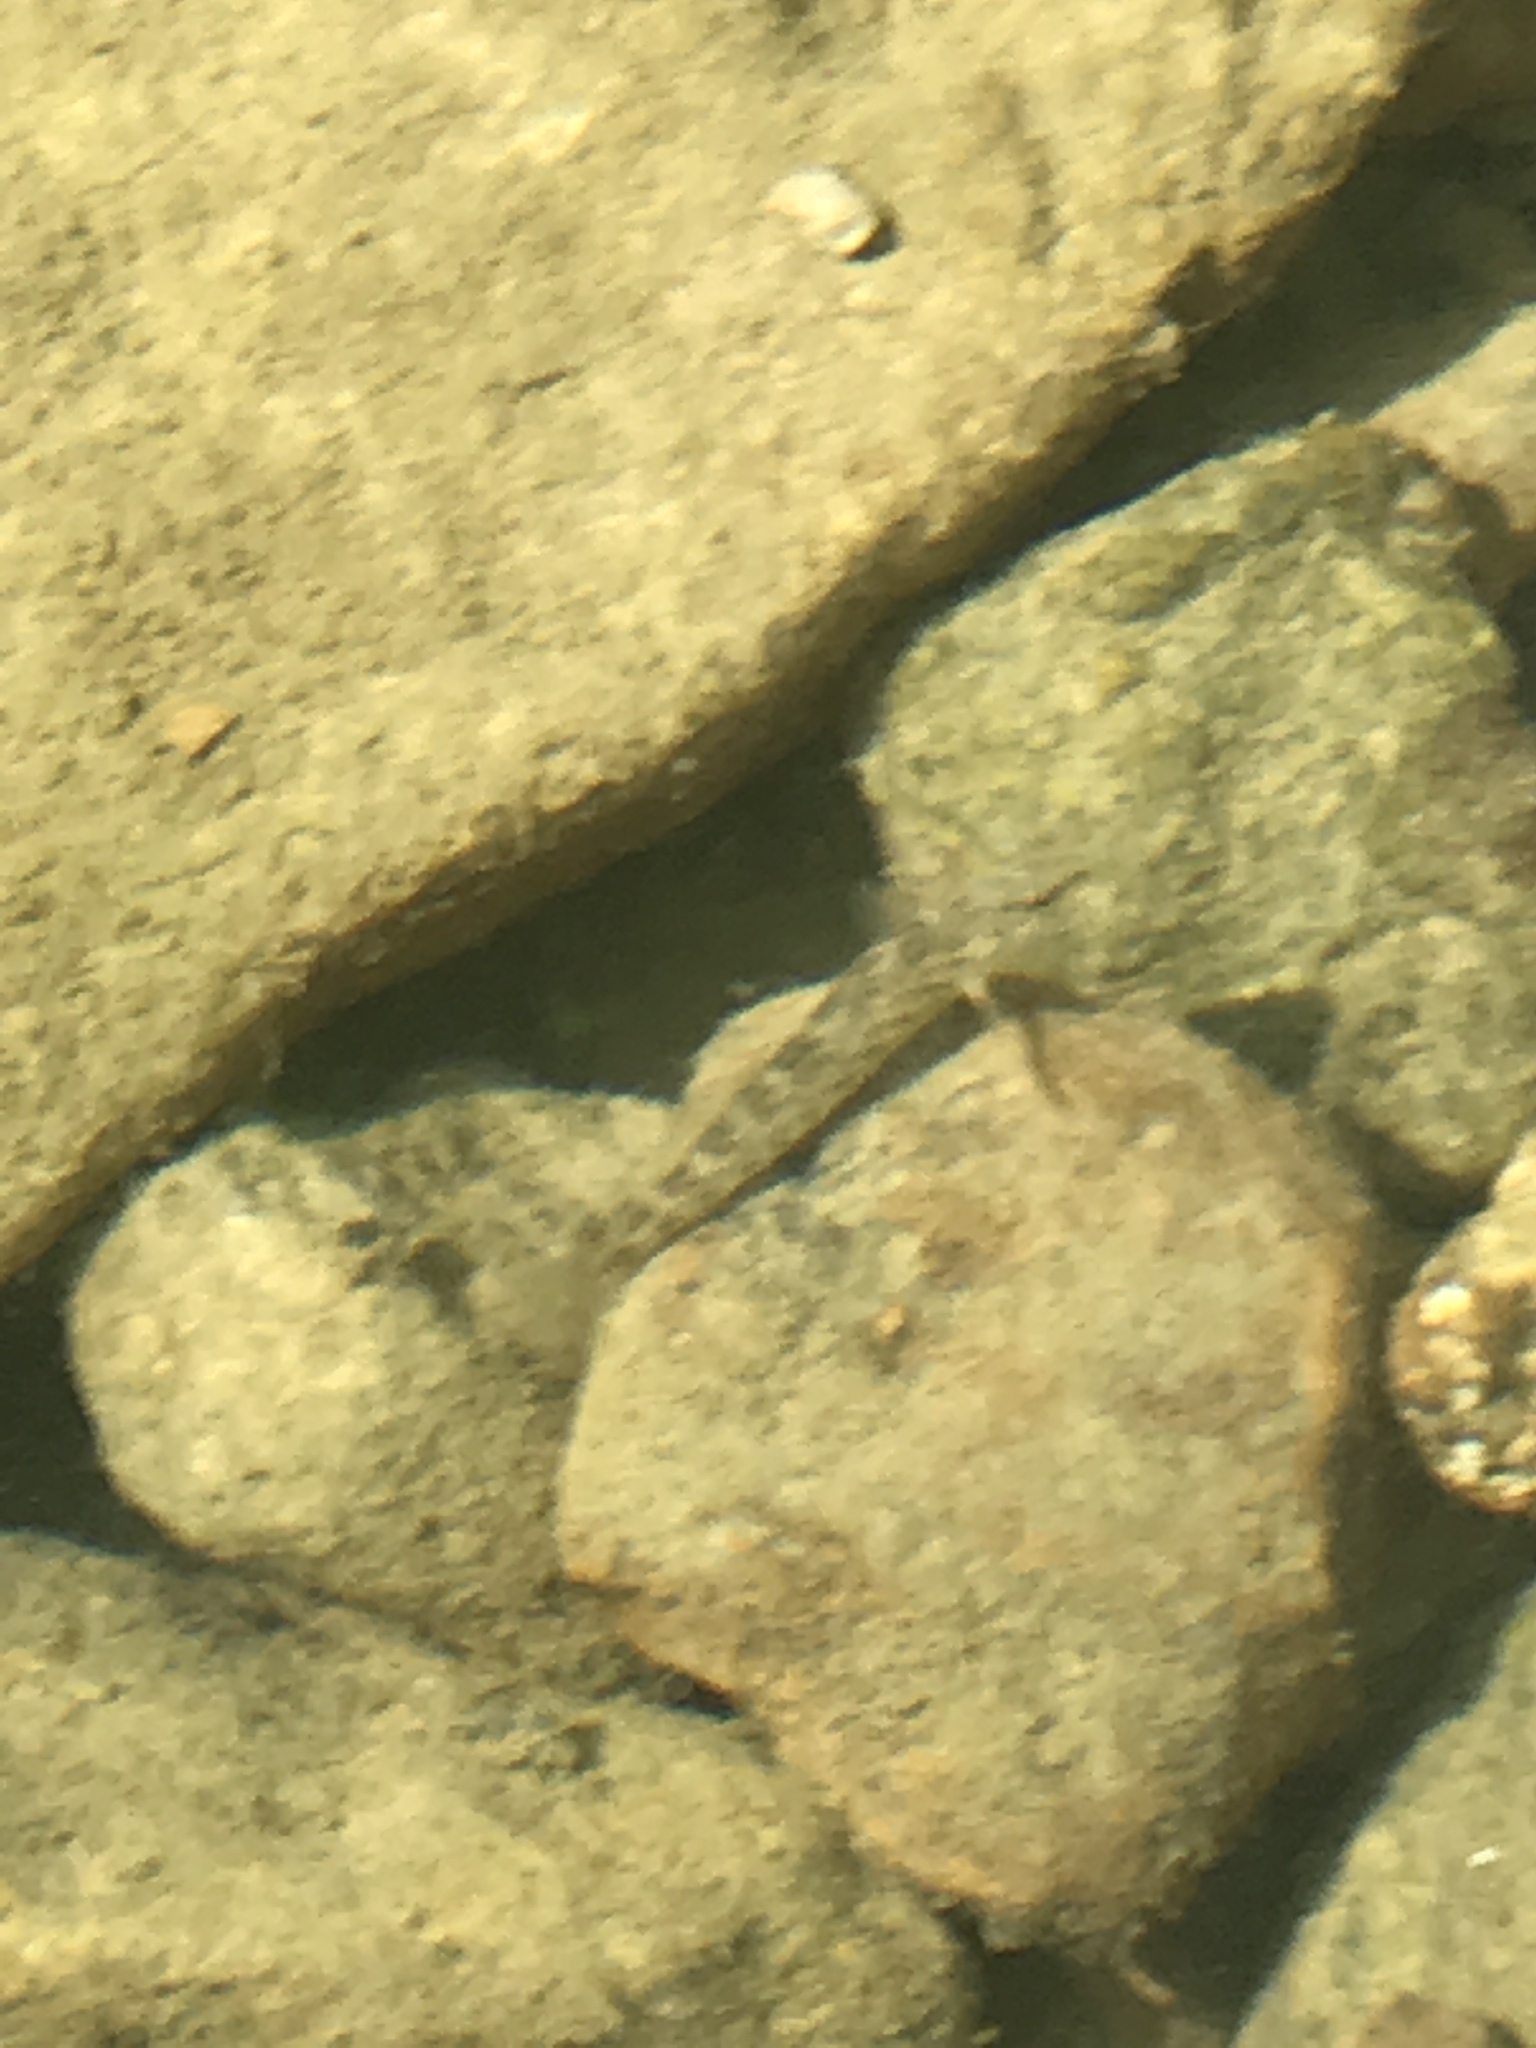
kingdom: Animalia
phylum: Chordata
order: Perciformes
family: Percidae
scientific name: Percidae
